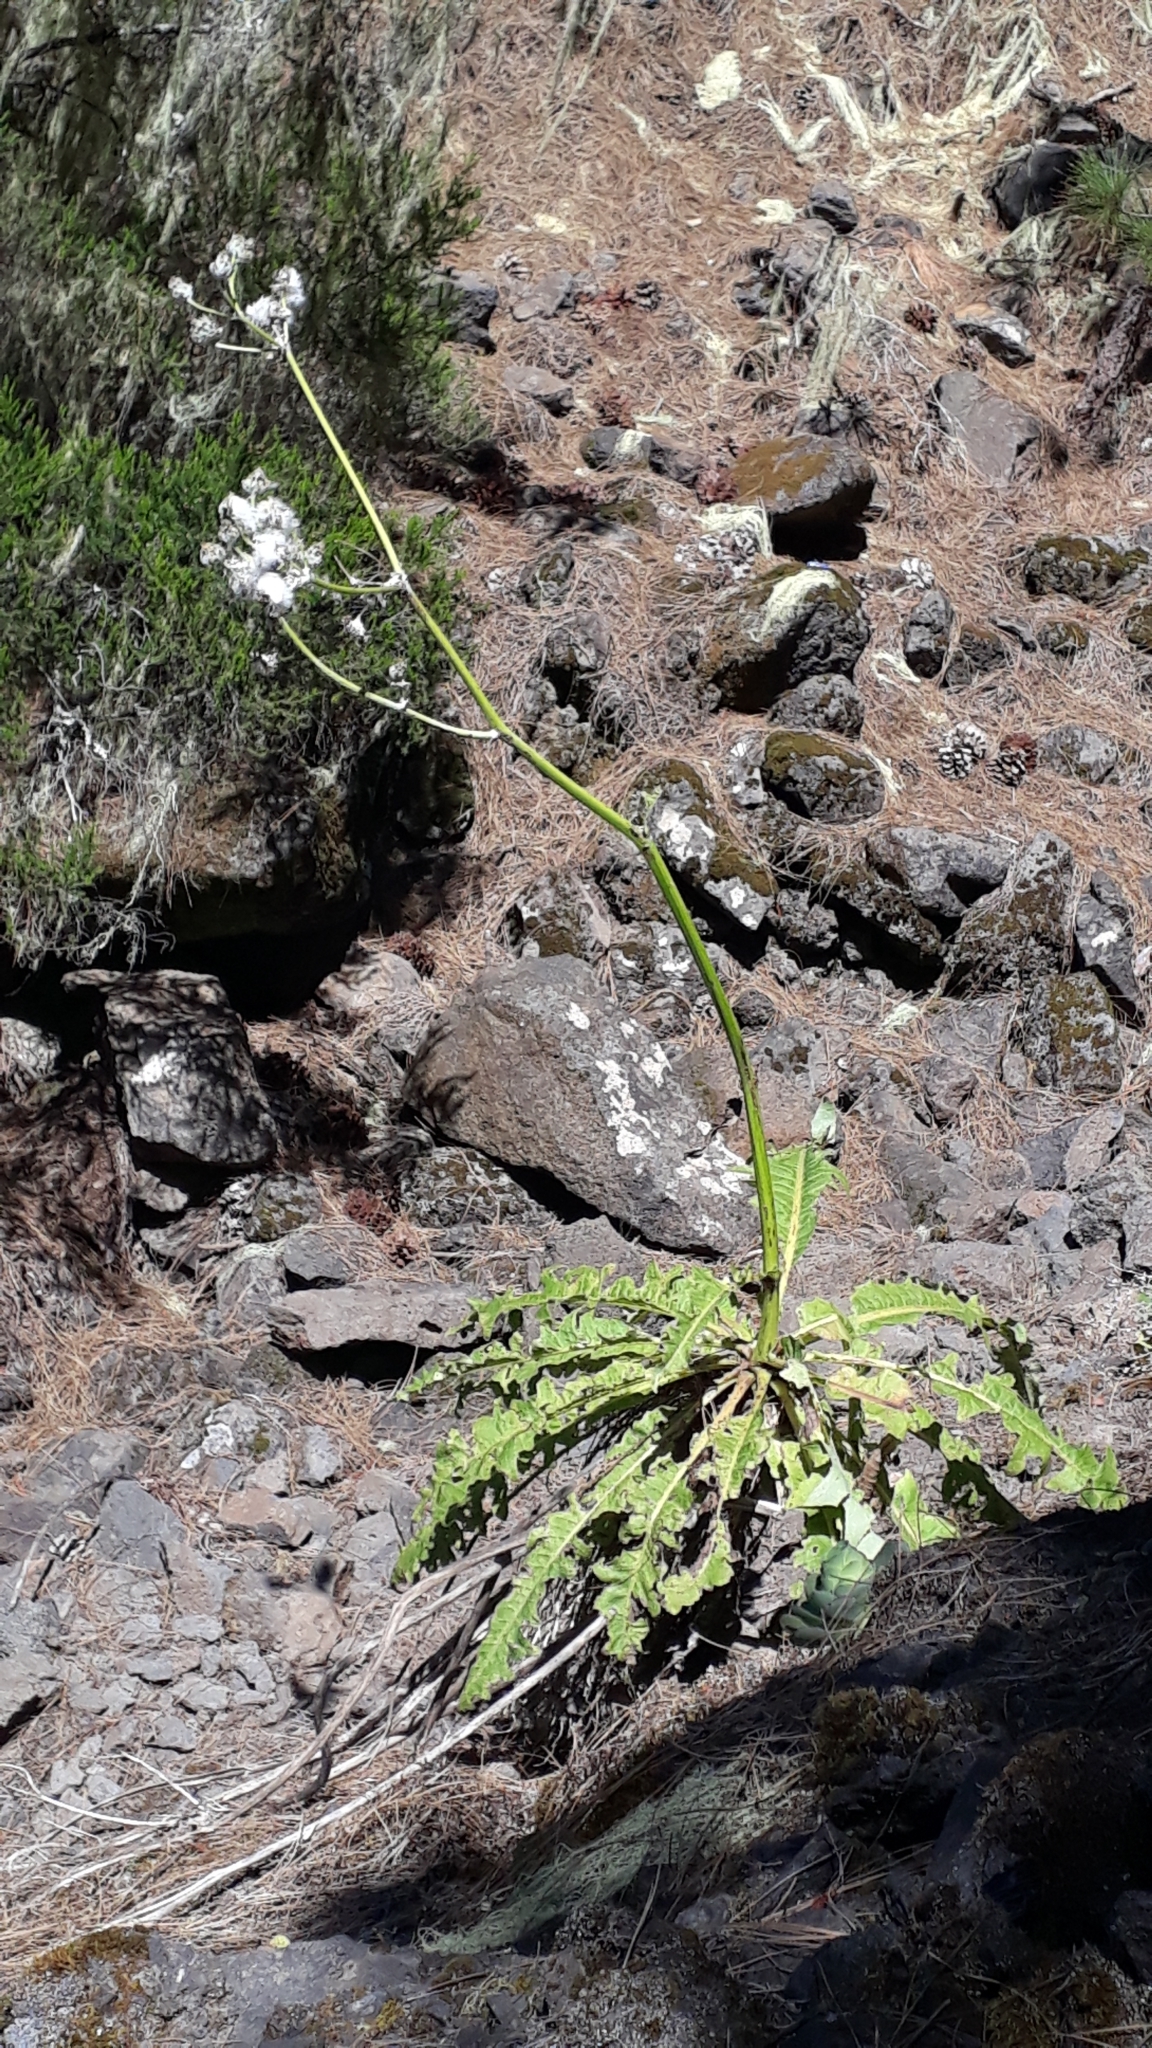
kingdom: Plantae
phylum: Tracheophyta
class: Magnoliopsida
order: Asterales
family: Asteraceae
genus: Sonchus
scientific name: Sonchus acaulis
